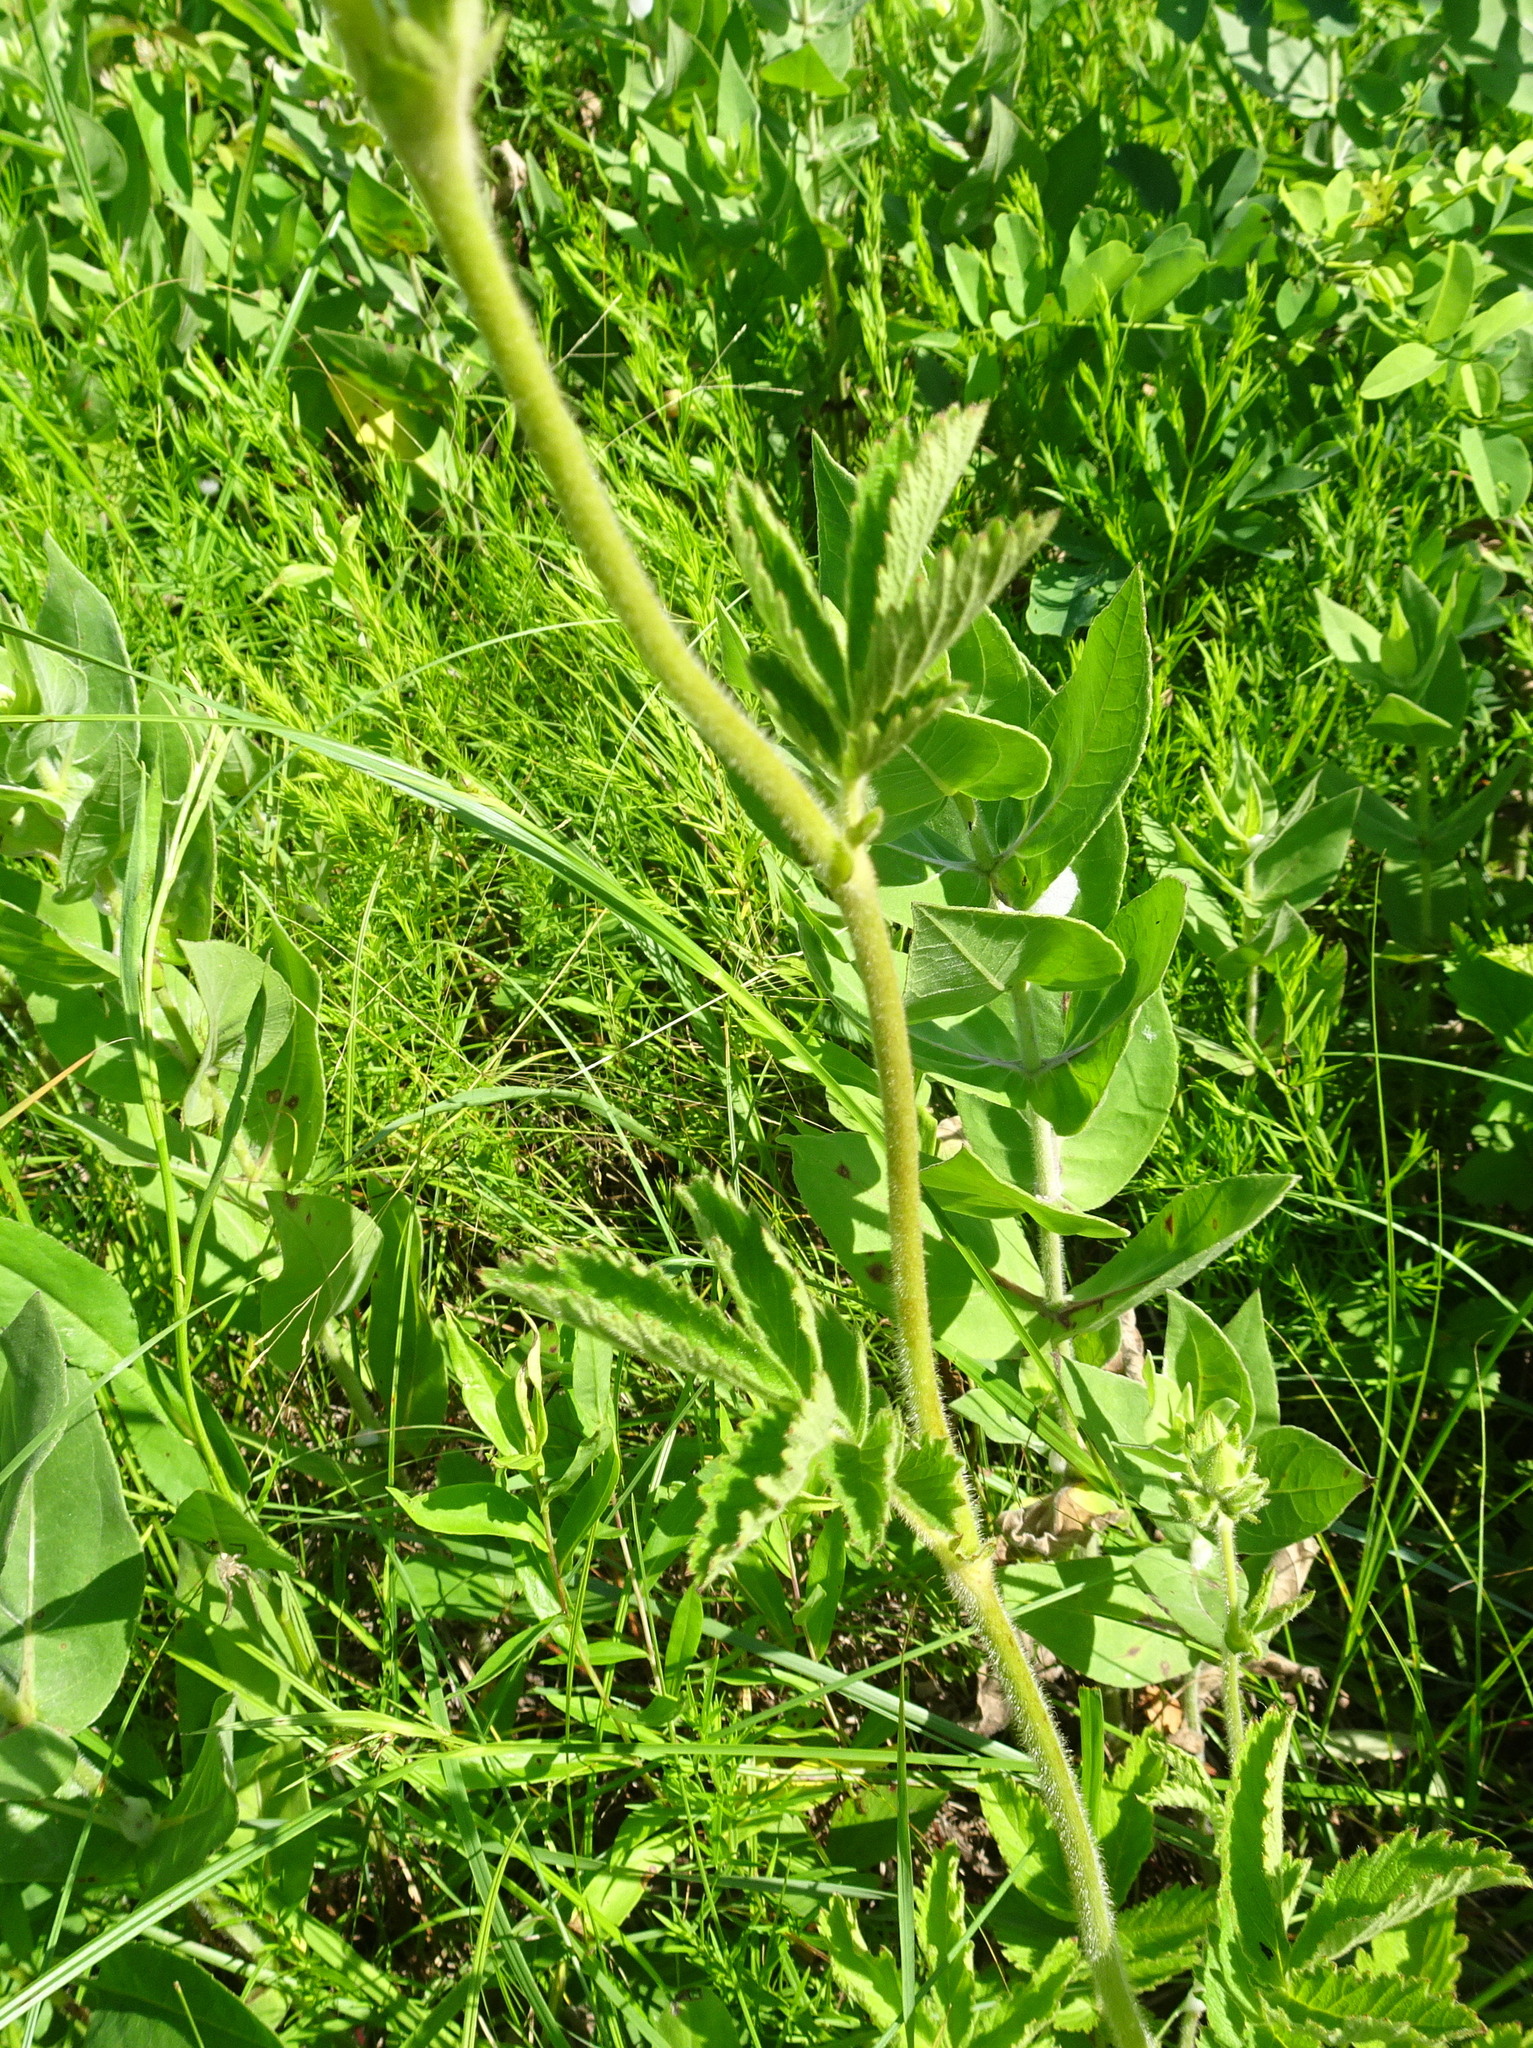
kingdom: Plantae
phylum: Tracheophyta
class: Magnoliopsida
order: Rosales
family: Rosaceae
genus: Drymocallis
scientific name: Drymocallis arguta
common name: Tall cinquefoil
